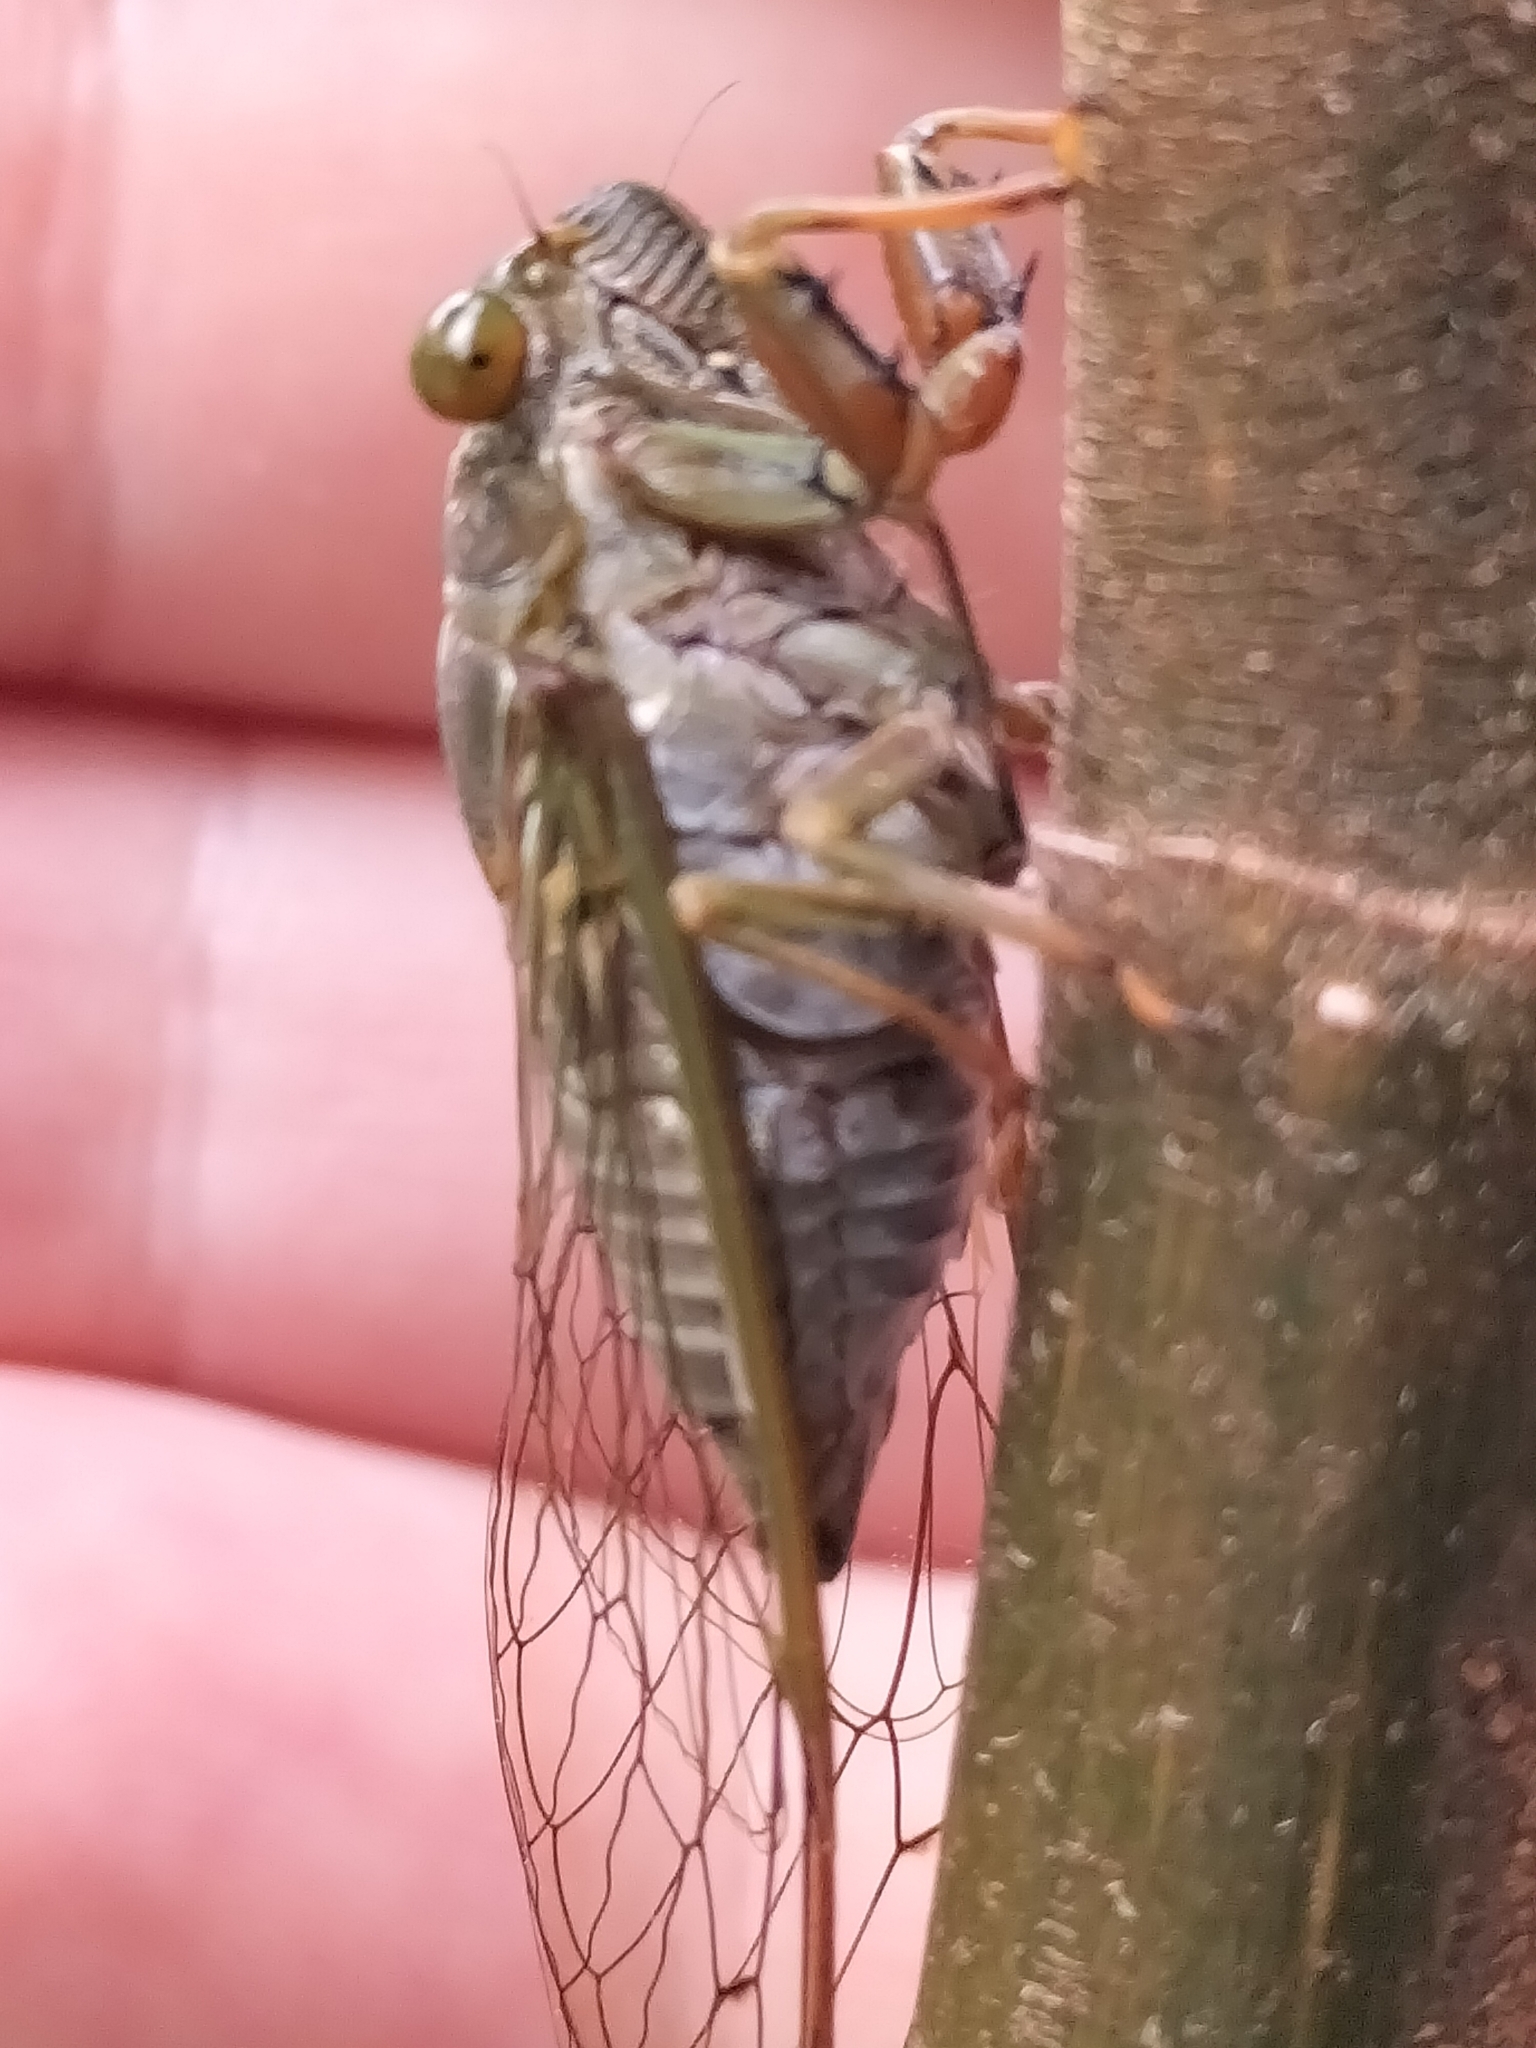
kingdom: Animalia
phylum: Arthropoda
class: Insecta
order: Hemiptera
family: Cicadidae
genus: Tamasa
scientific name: Tamasa doddi
